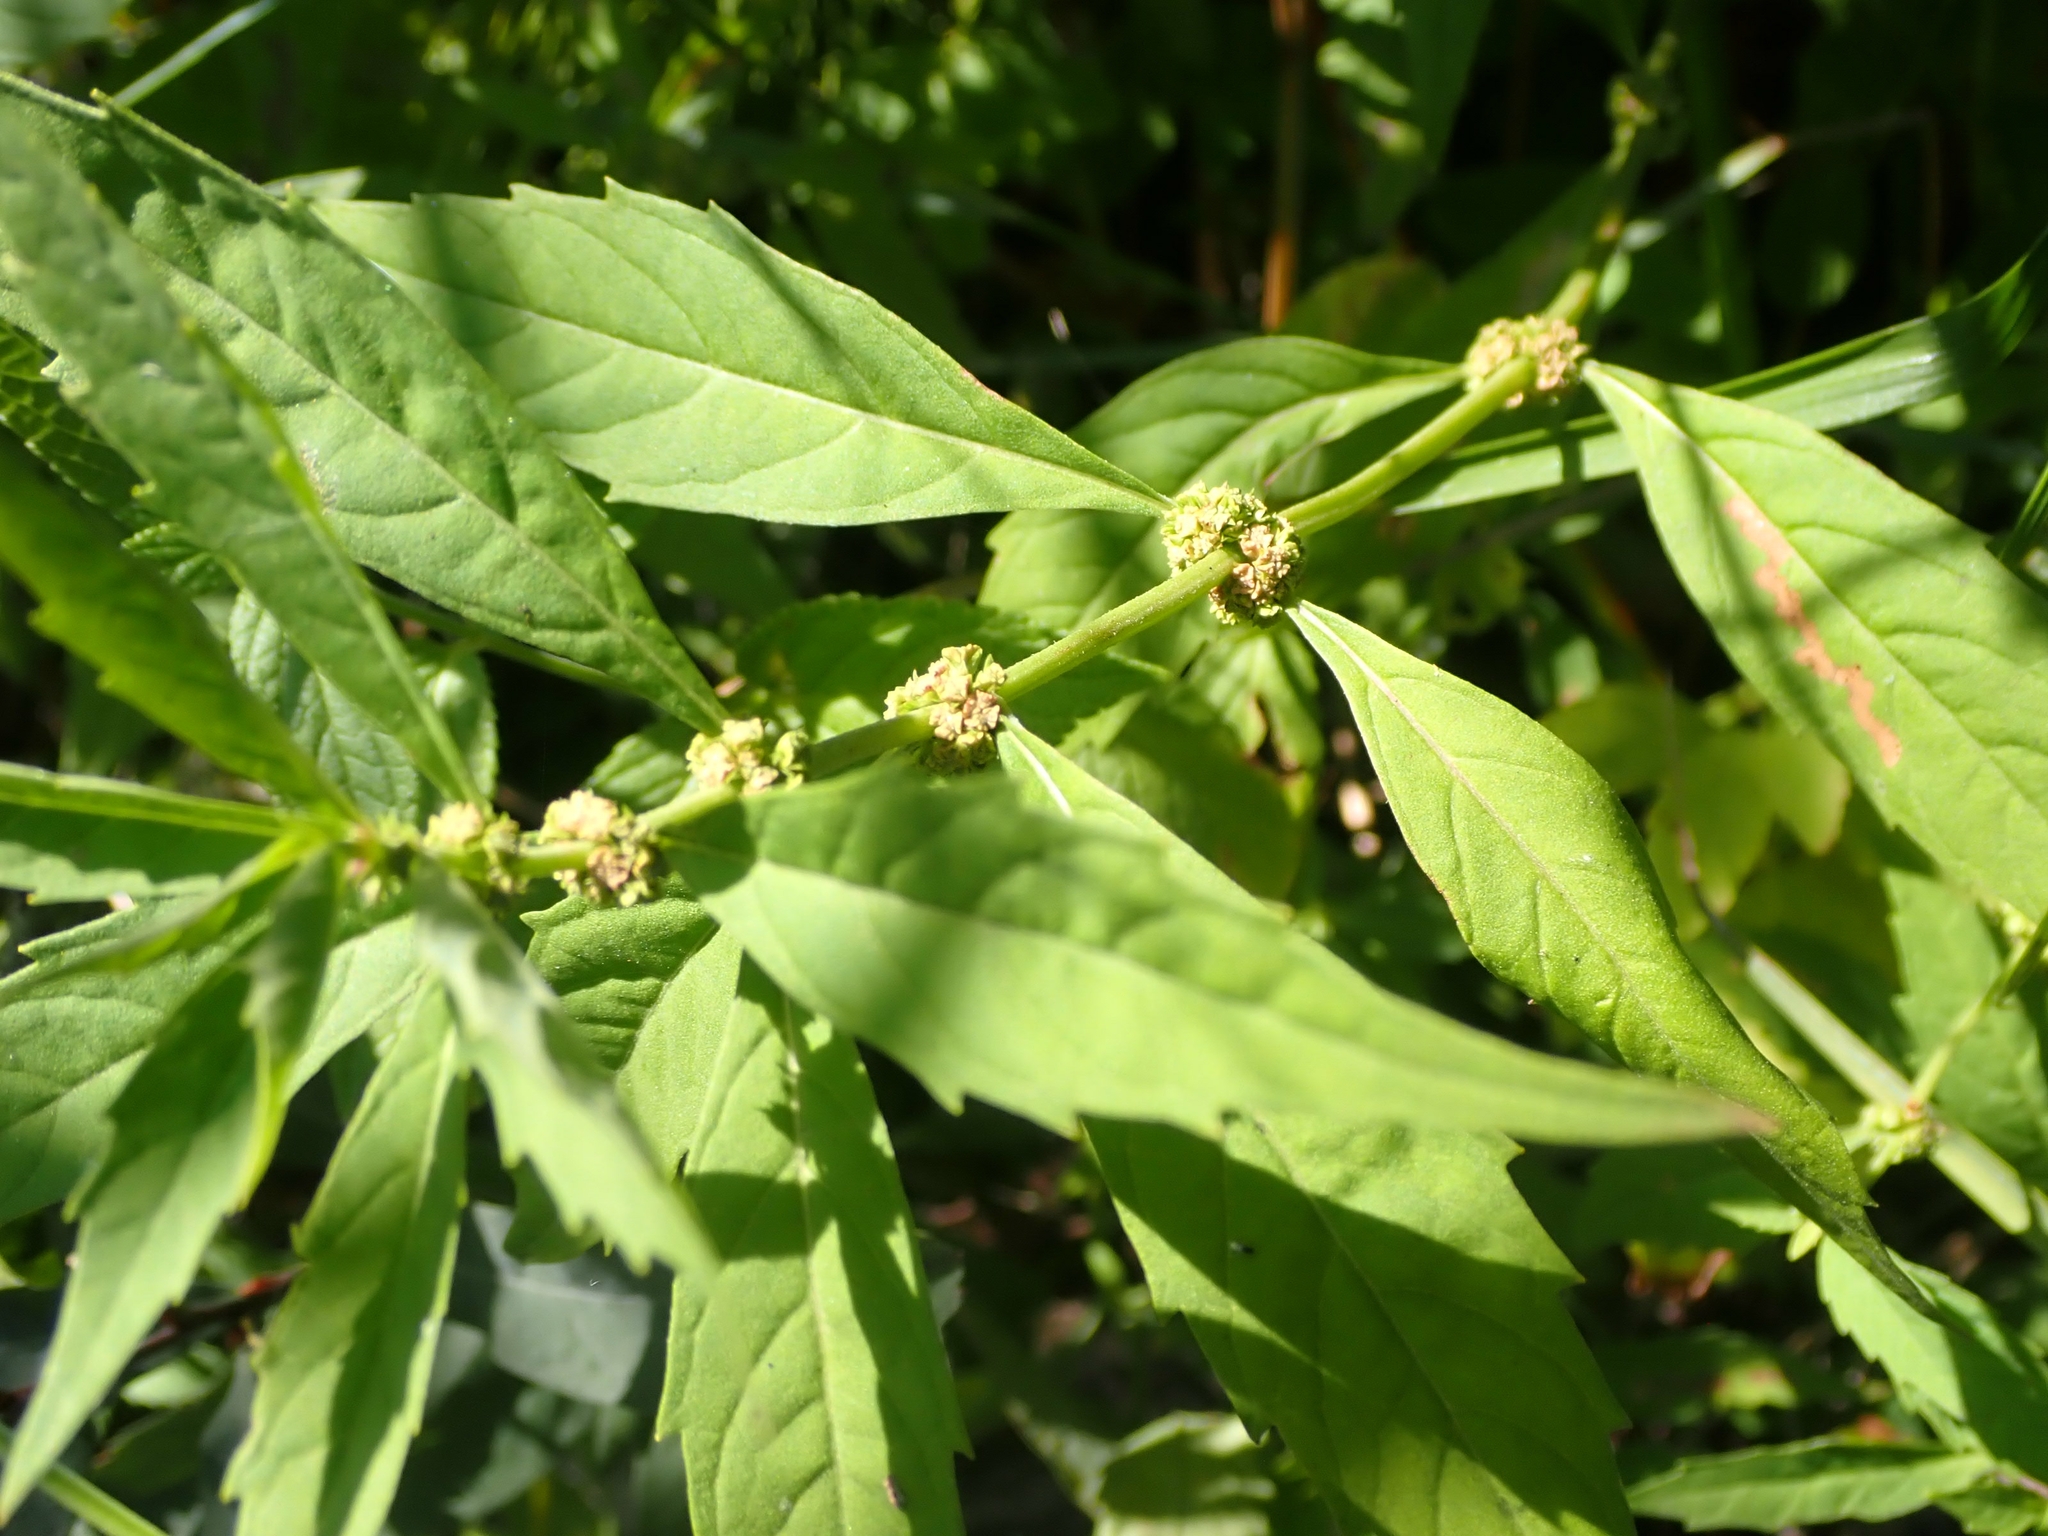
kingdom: Plantae
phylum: Tracheophyta
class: Magnoliopsida
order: Lamiales
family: Lamiaceae
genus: Lycopus
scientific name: Lycopus uniflorus
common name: Northern bugleweed
